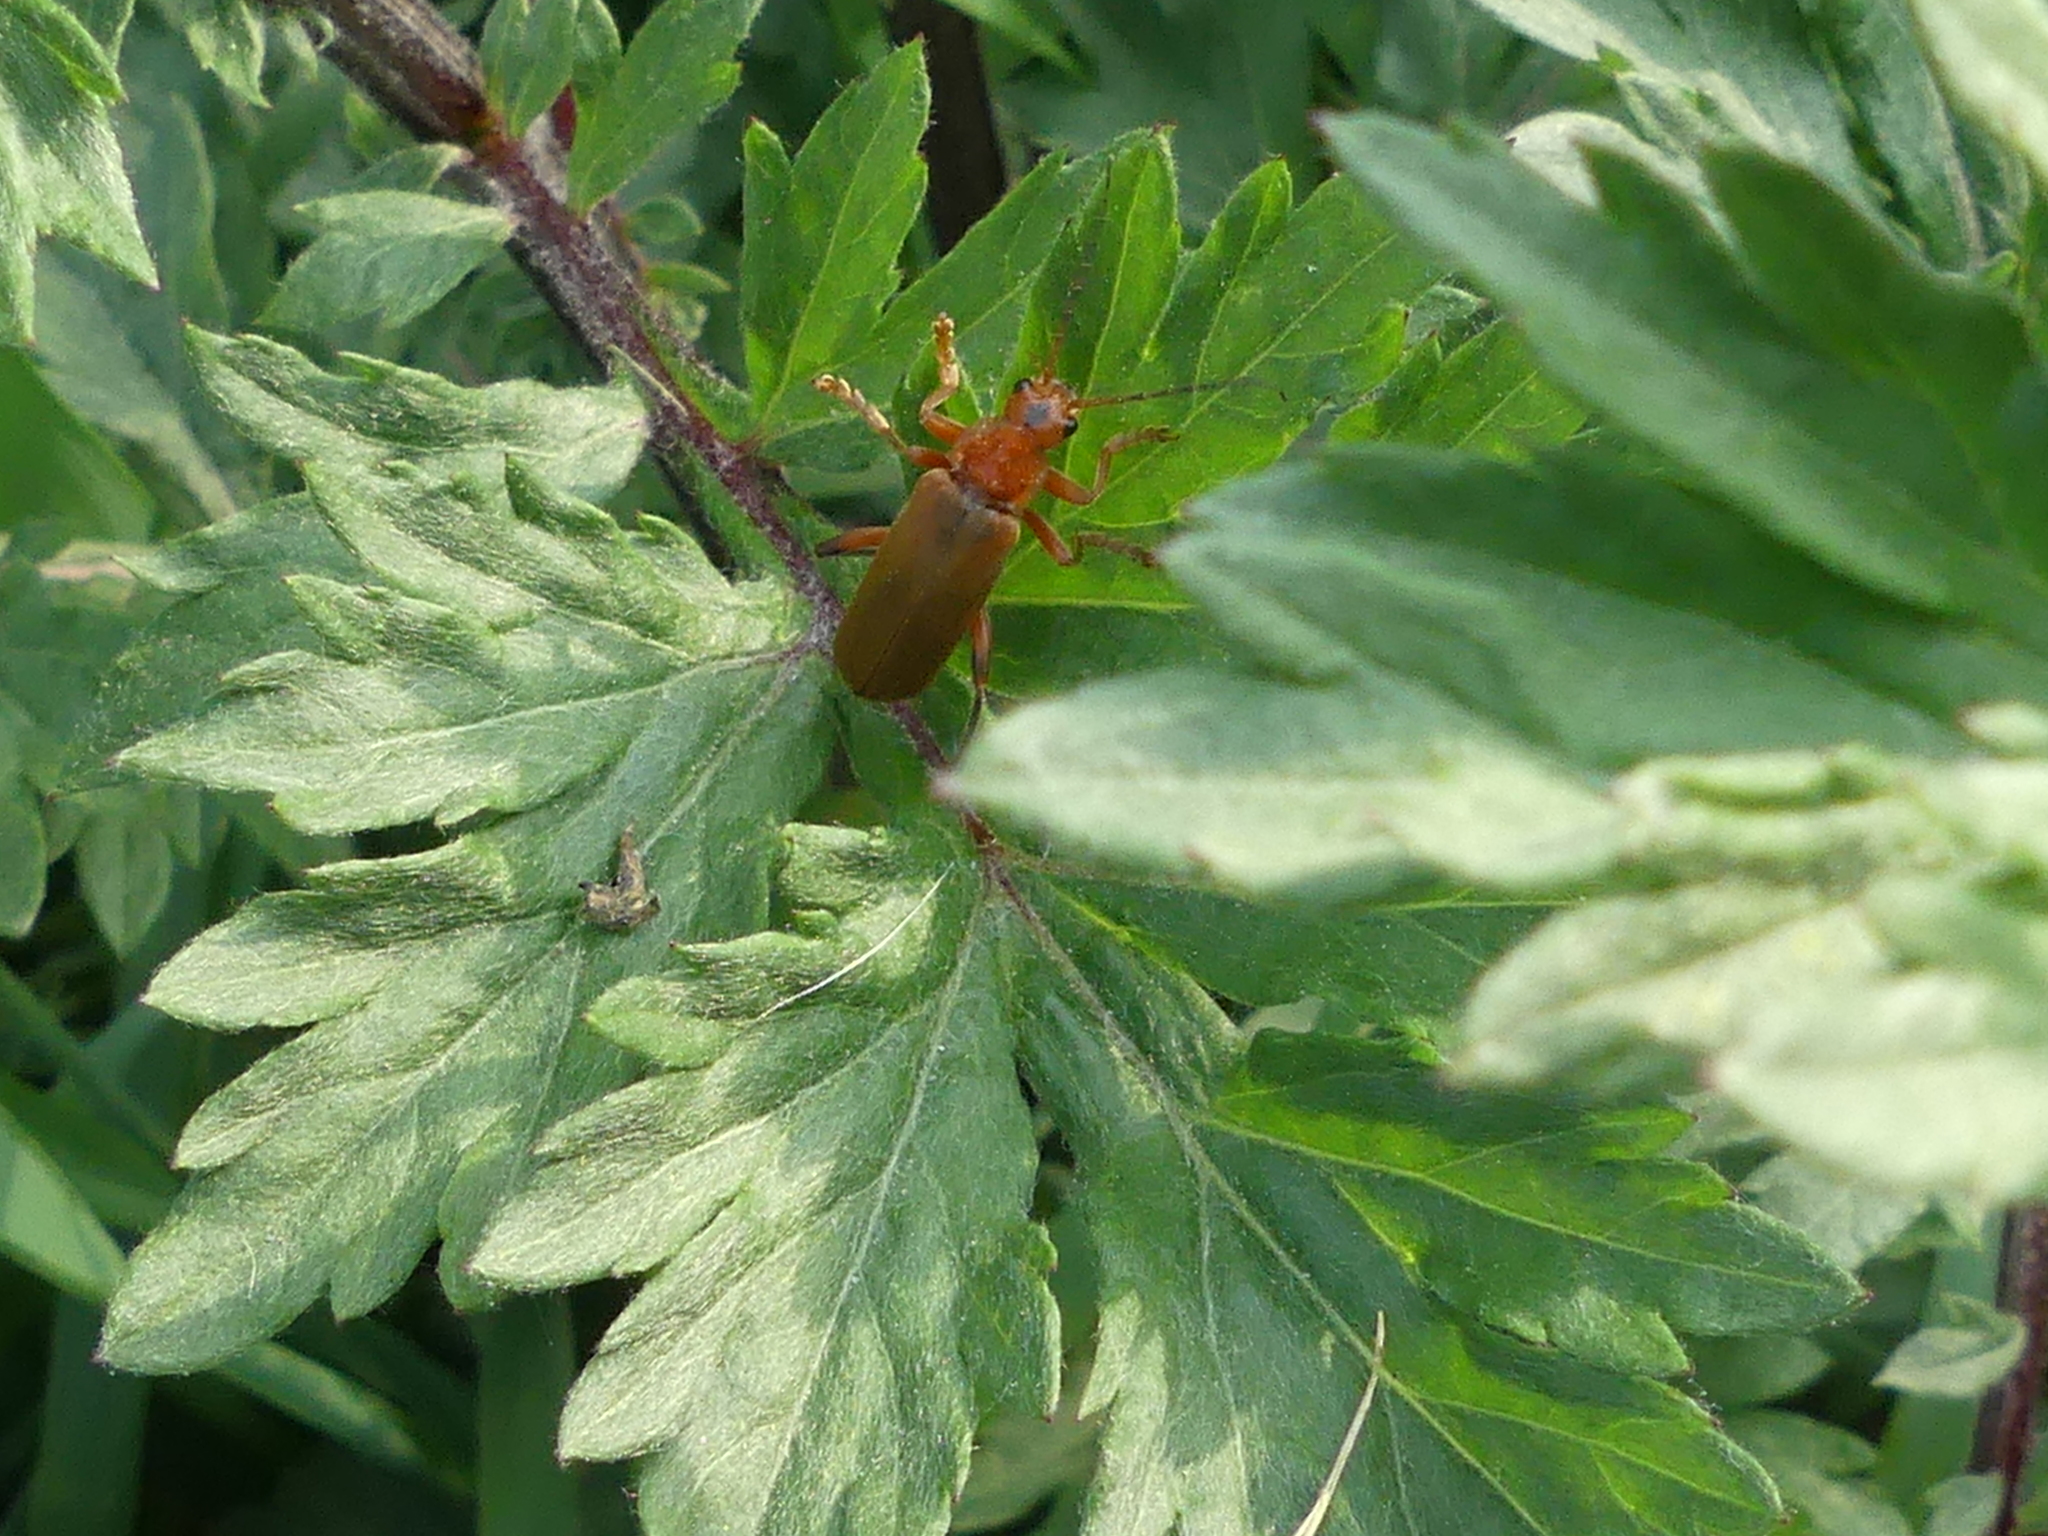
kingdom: Animalia
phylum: Arthropoda
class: Insecta
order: Coleoptera
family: Cantharidae
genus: Cantharis
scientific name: Cantharis livida
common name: Livid soldier beetle
